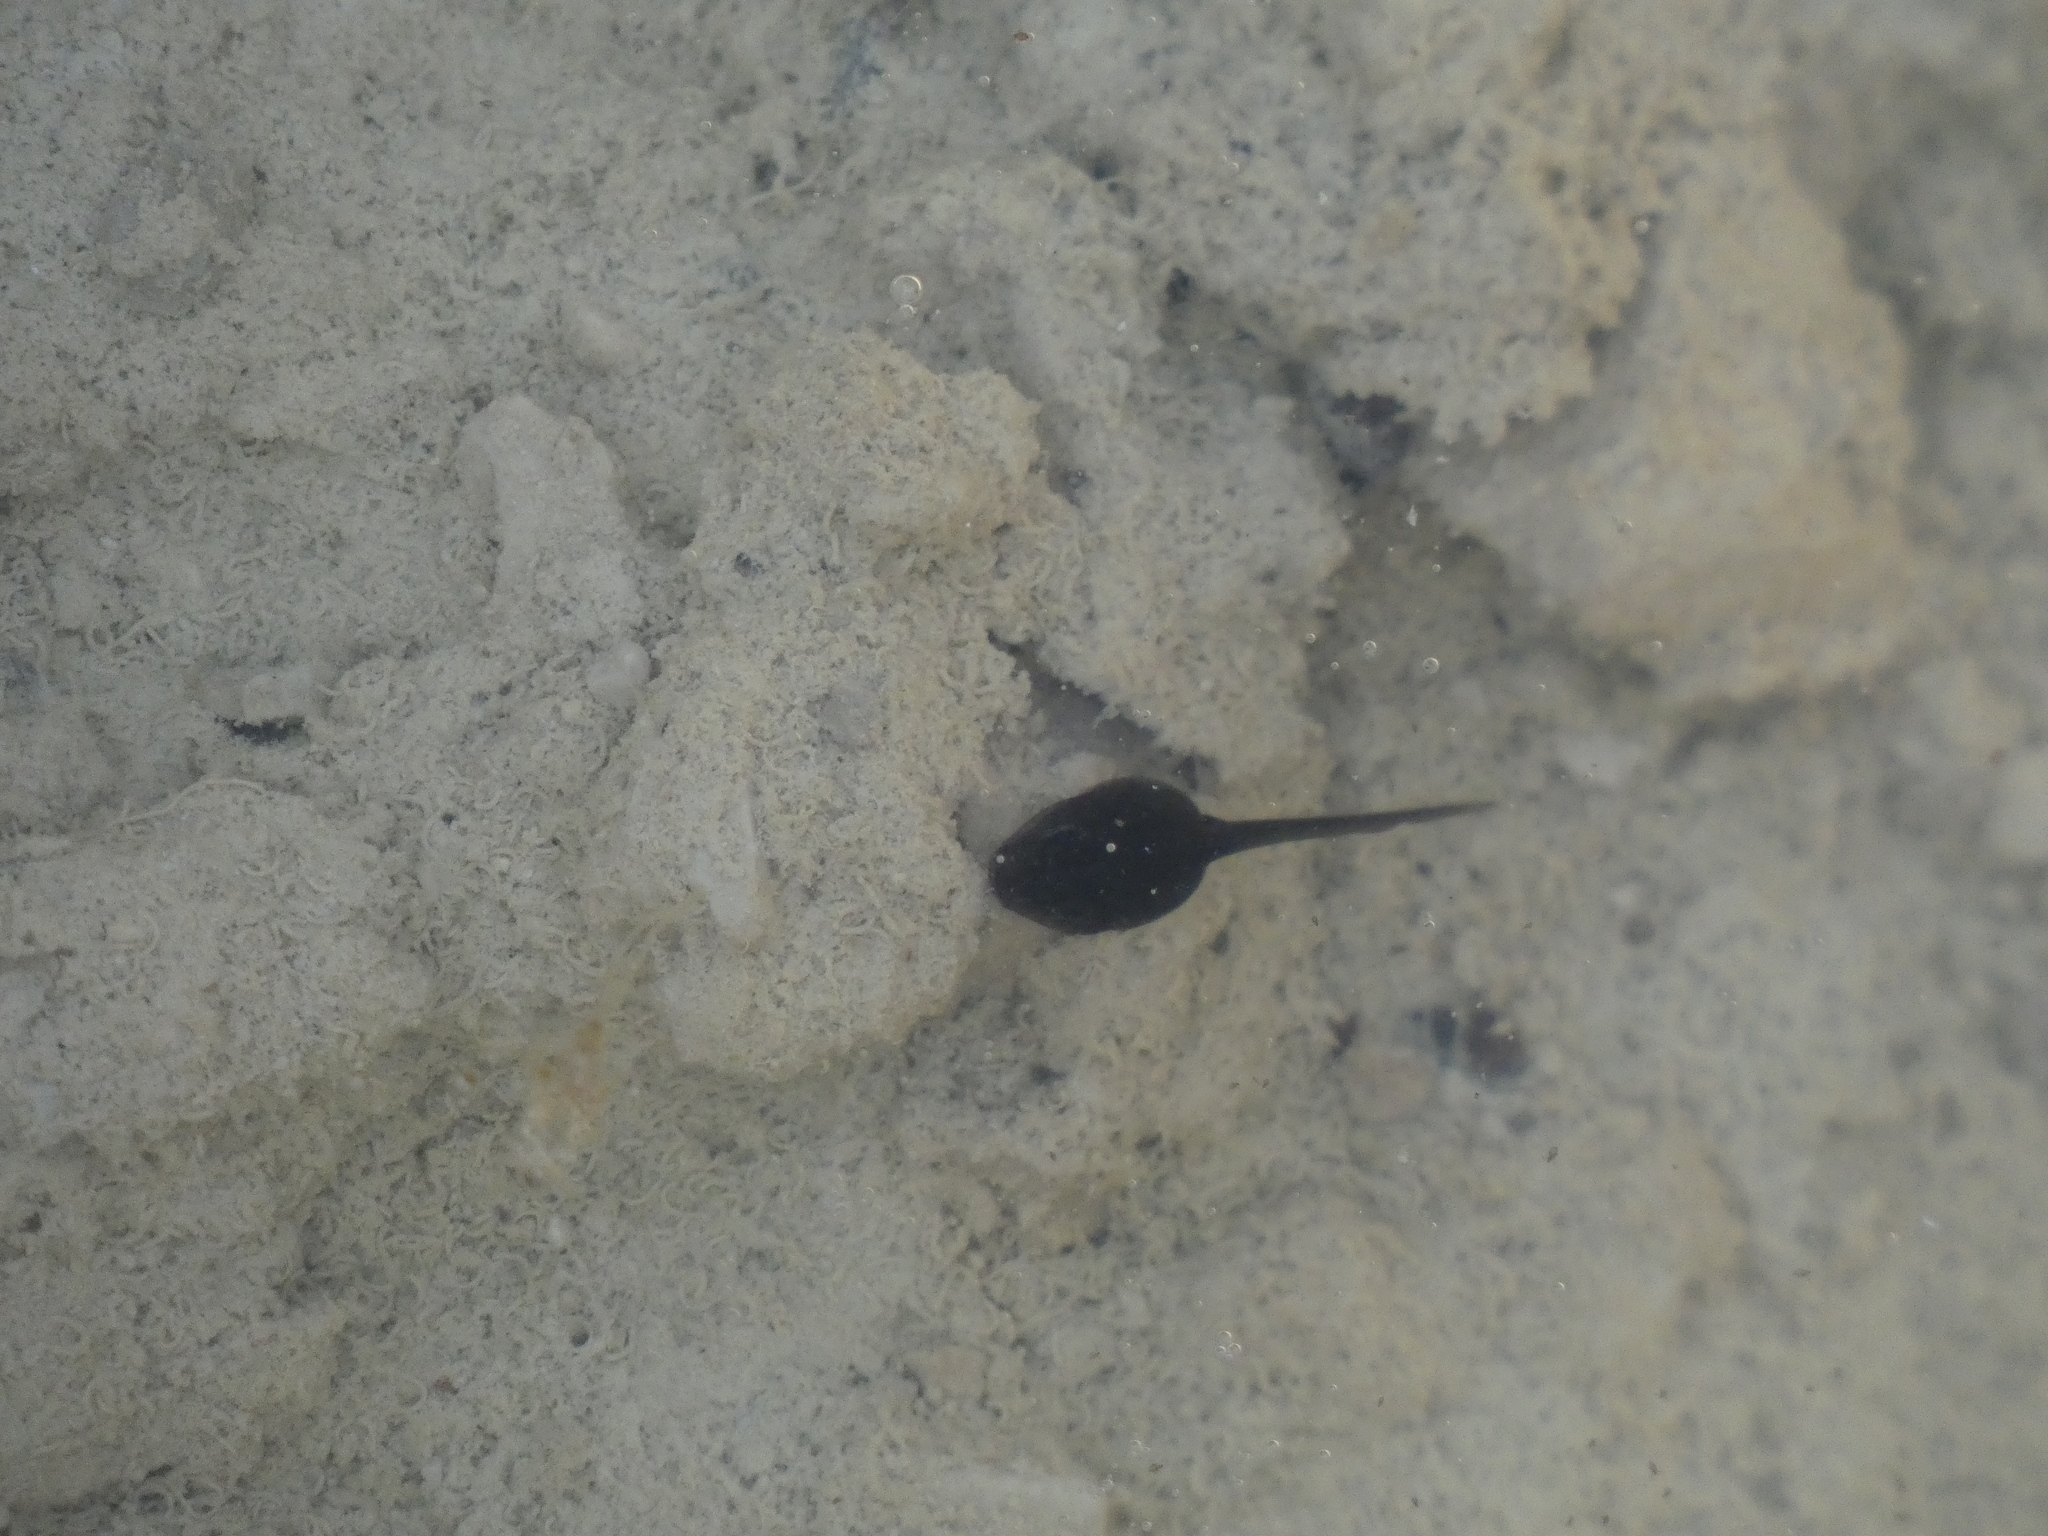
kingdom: Animalia
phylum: Chordata
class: Amphibia
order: Anura
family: Bufonidae
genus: Epidalea
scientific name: Epidalea calamita
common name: Natterjack toad
